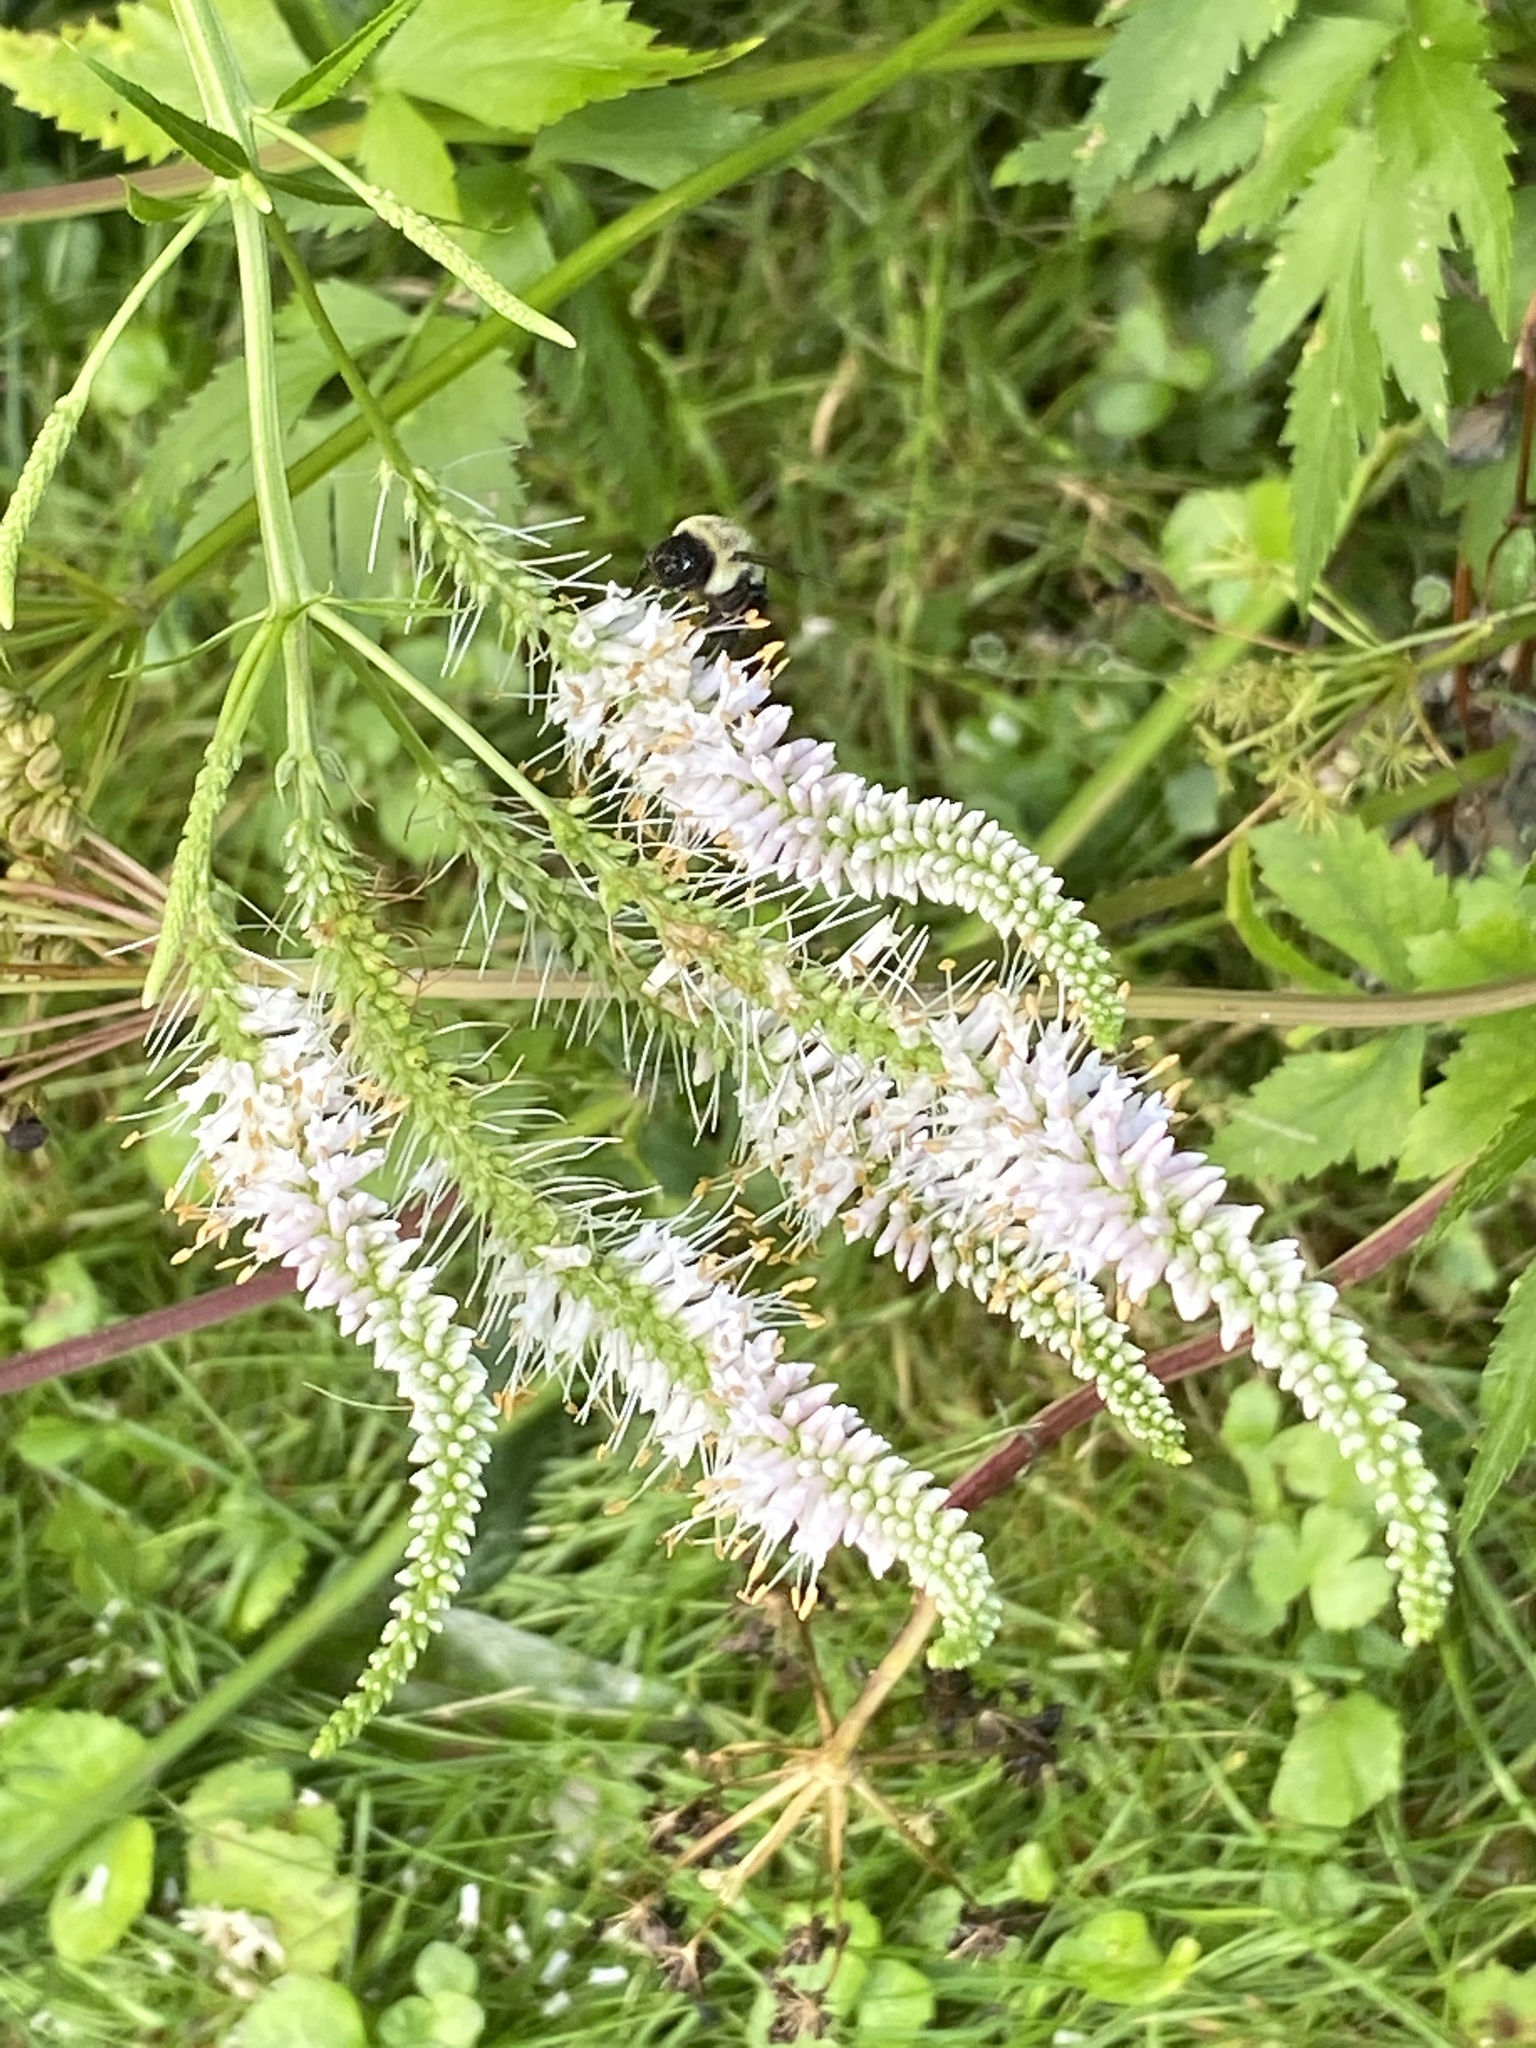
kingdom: Plantae
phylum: Tracheophyta
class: Magnoliopsida
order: Lamiales
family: Plantaginaceae
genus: Veronicastrum
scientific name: Veronicastrum virginicum
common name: Blackroot
